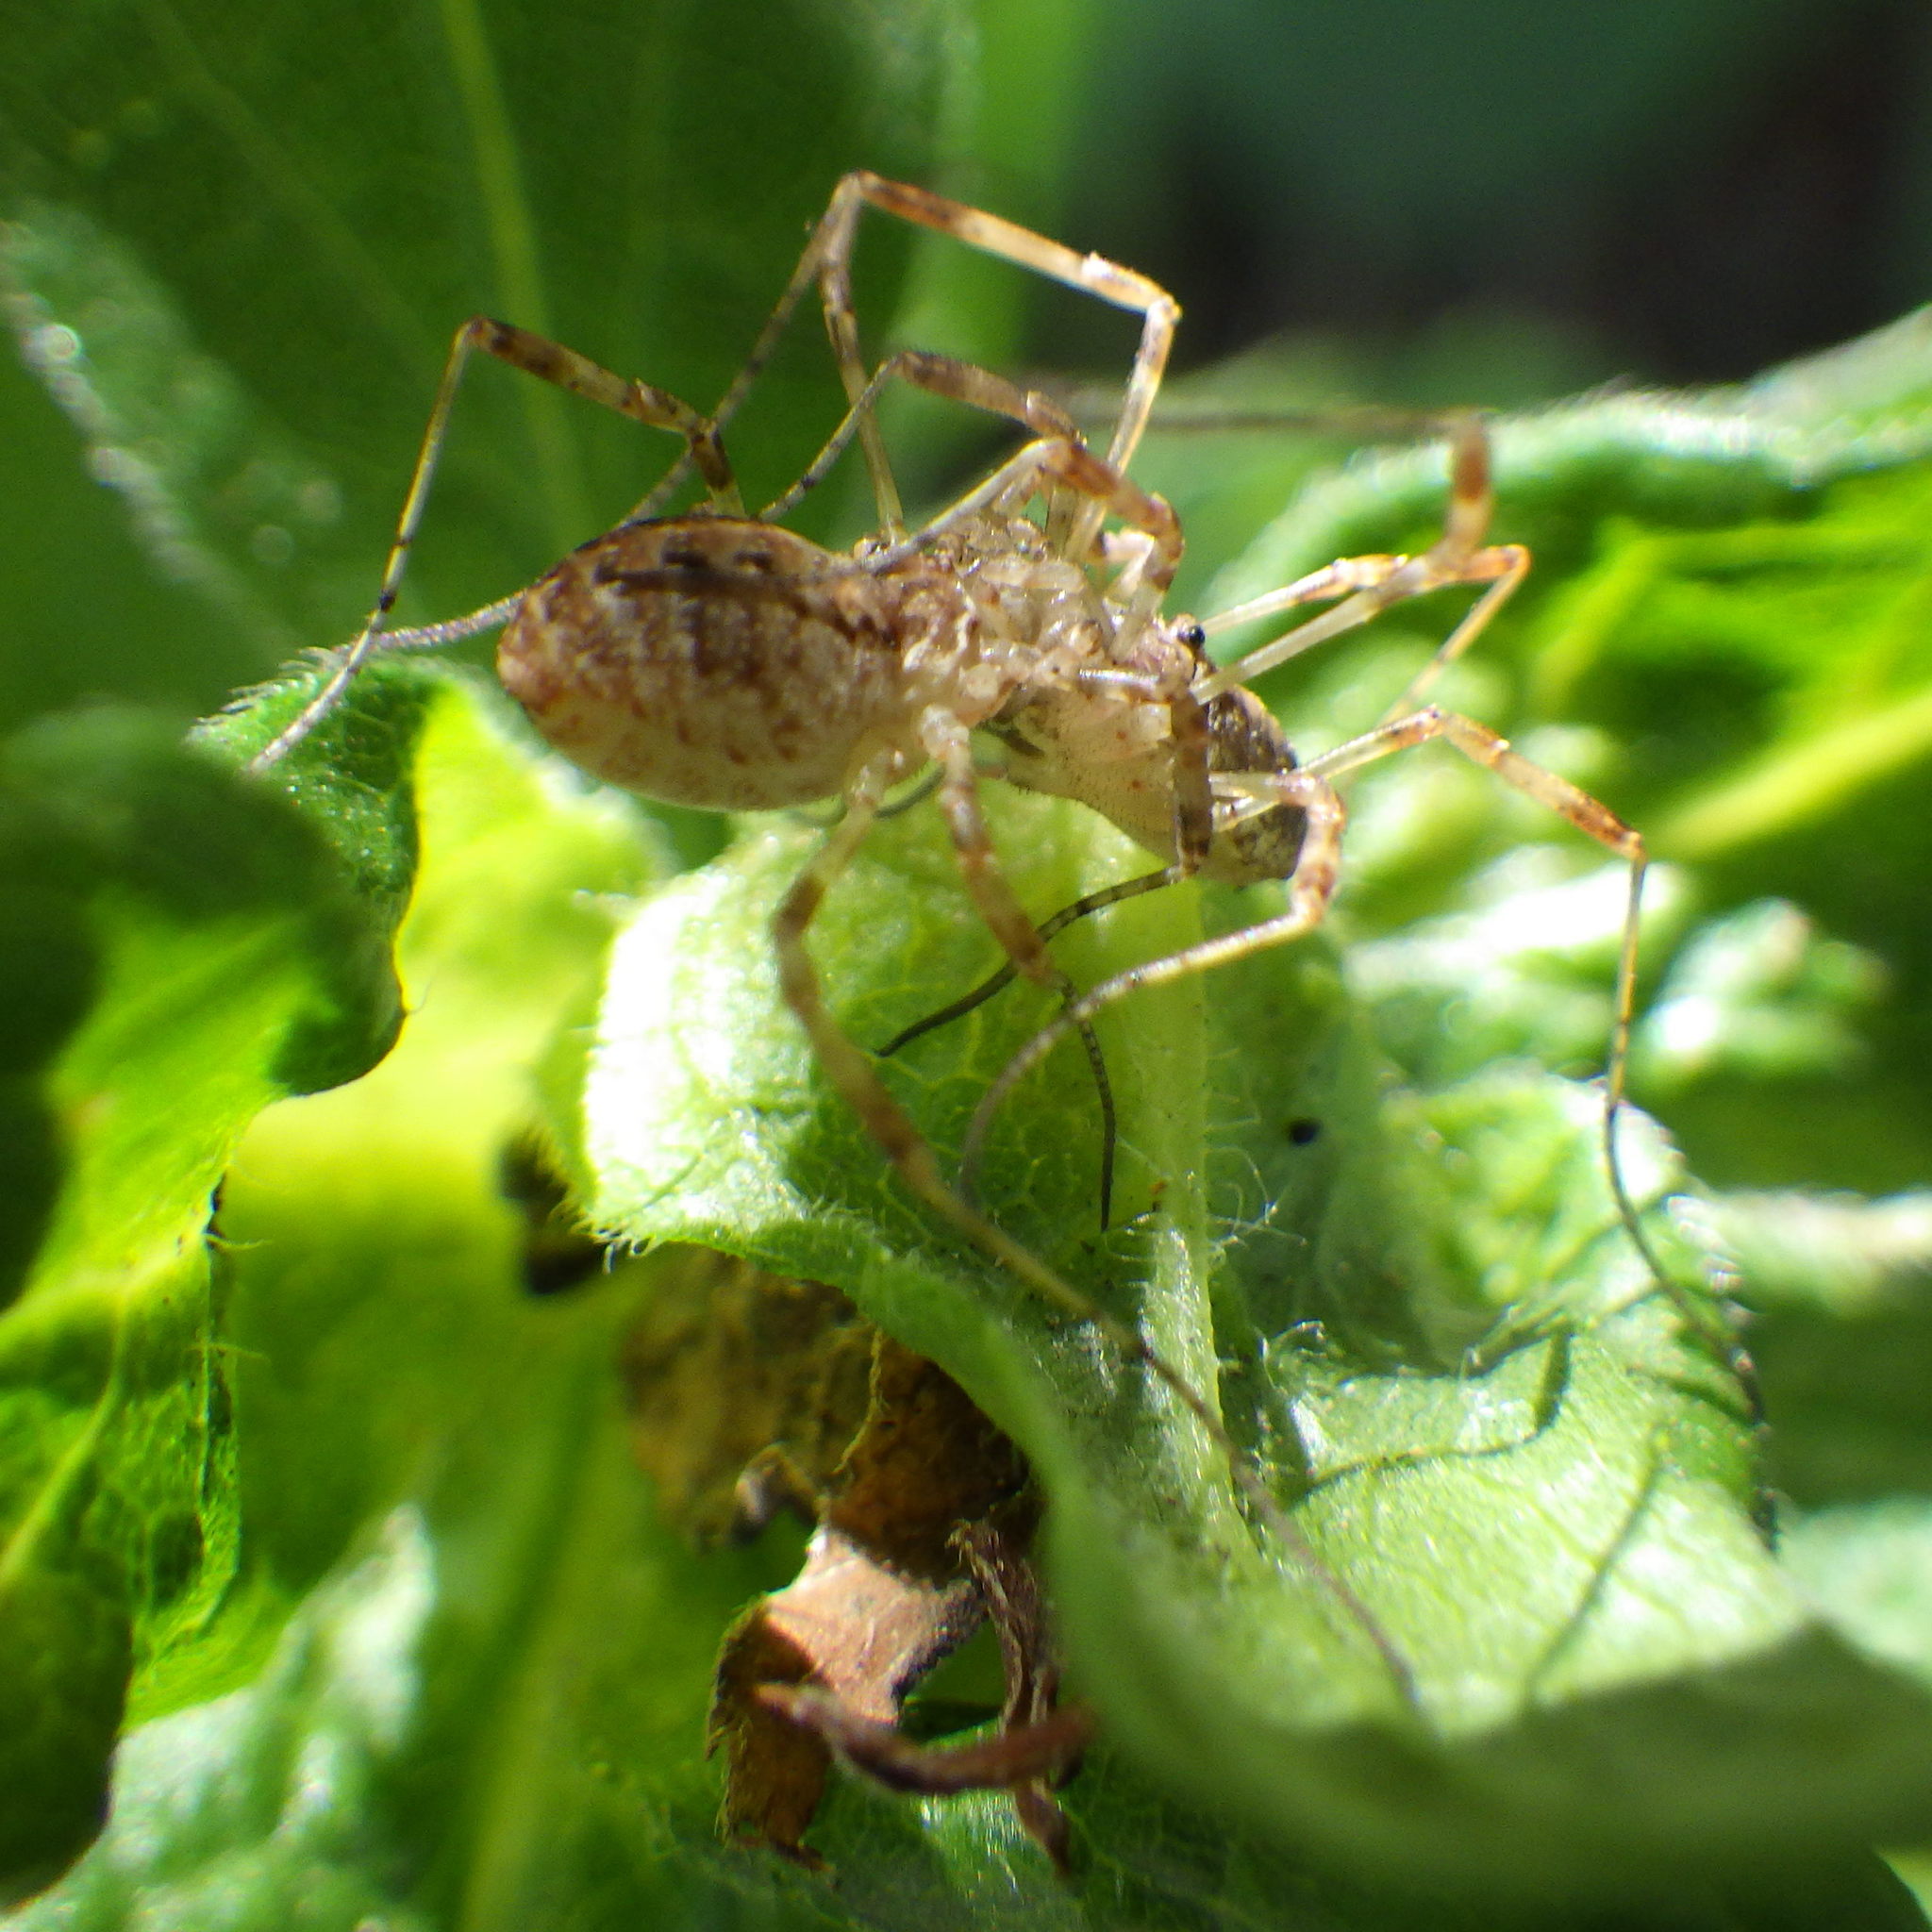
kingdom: Animalia
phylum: Arthropoda
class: Arachnida
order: Opiliones
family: Phalangiidae
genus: Paroligolophus
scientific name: Paroligolophus agrestis
